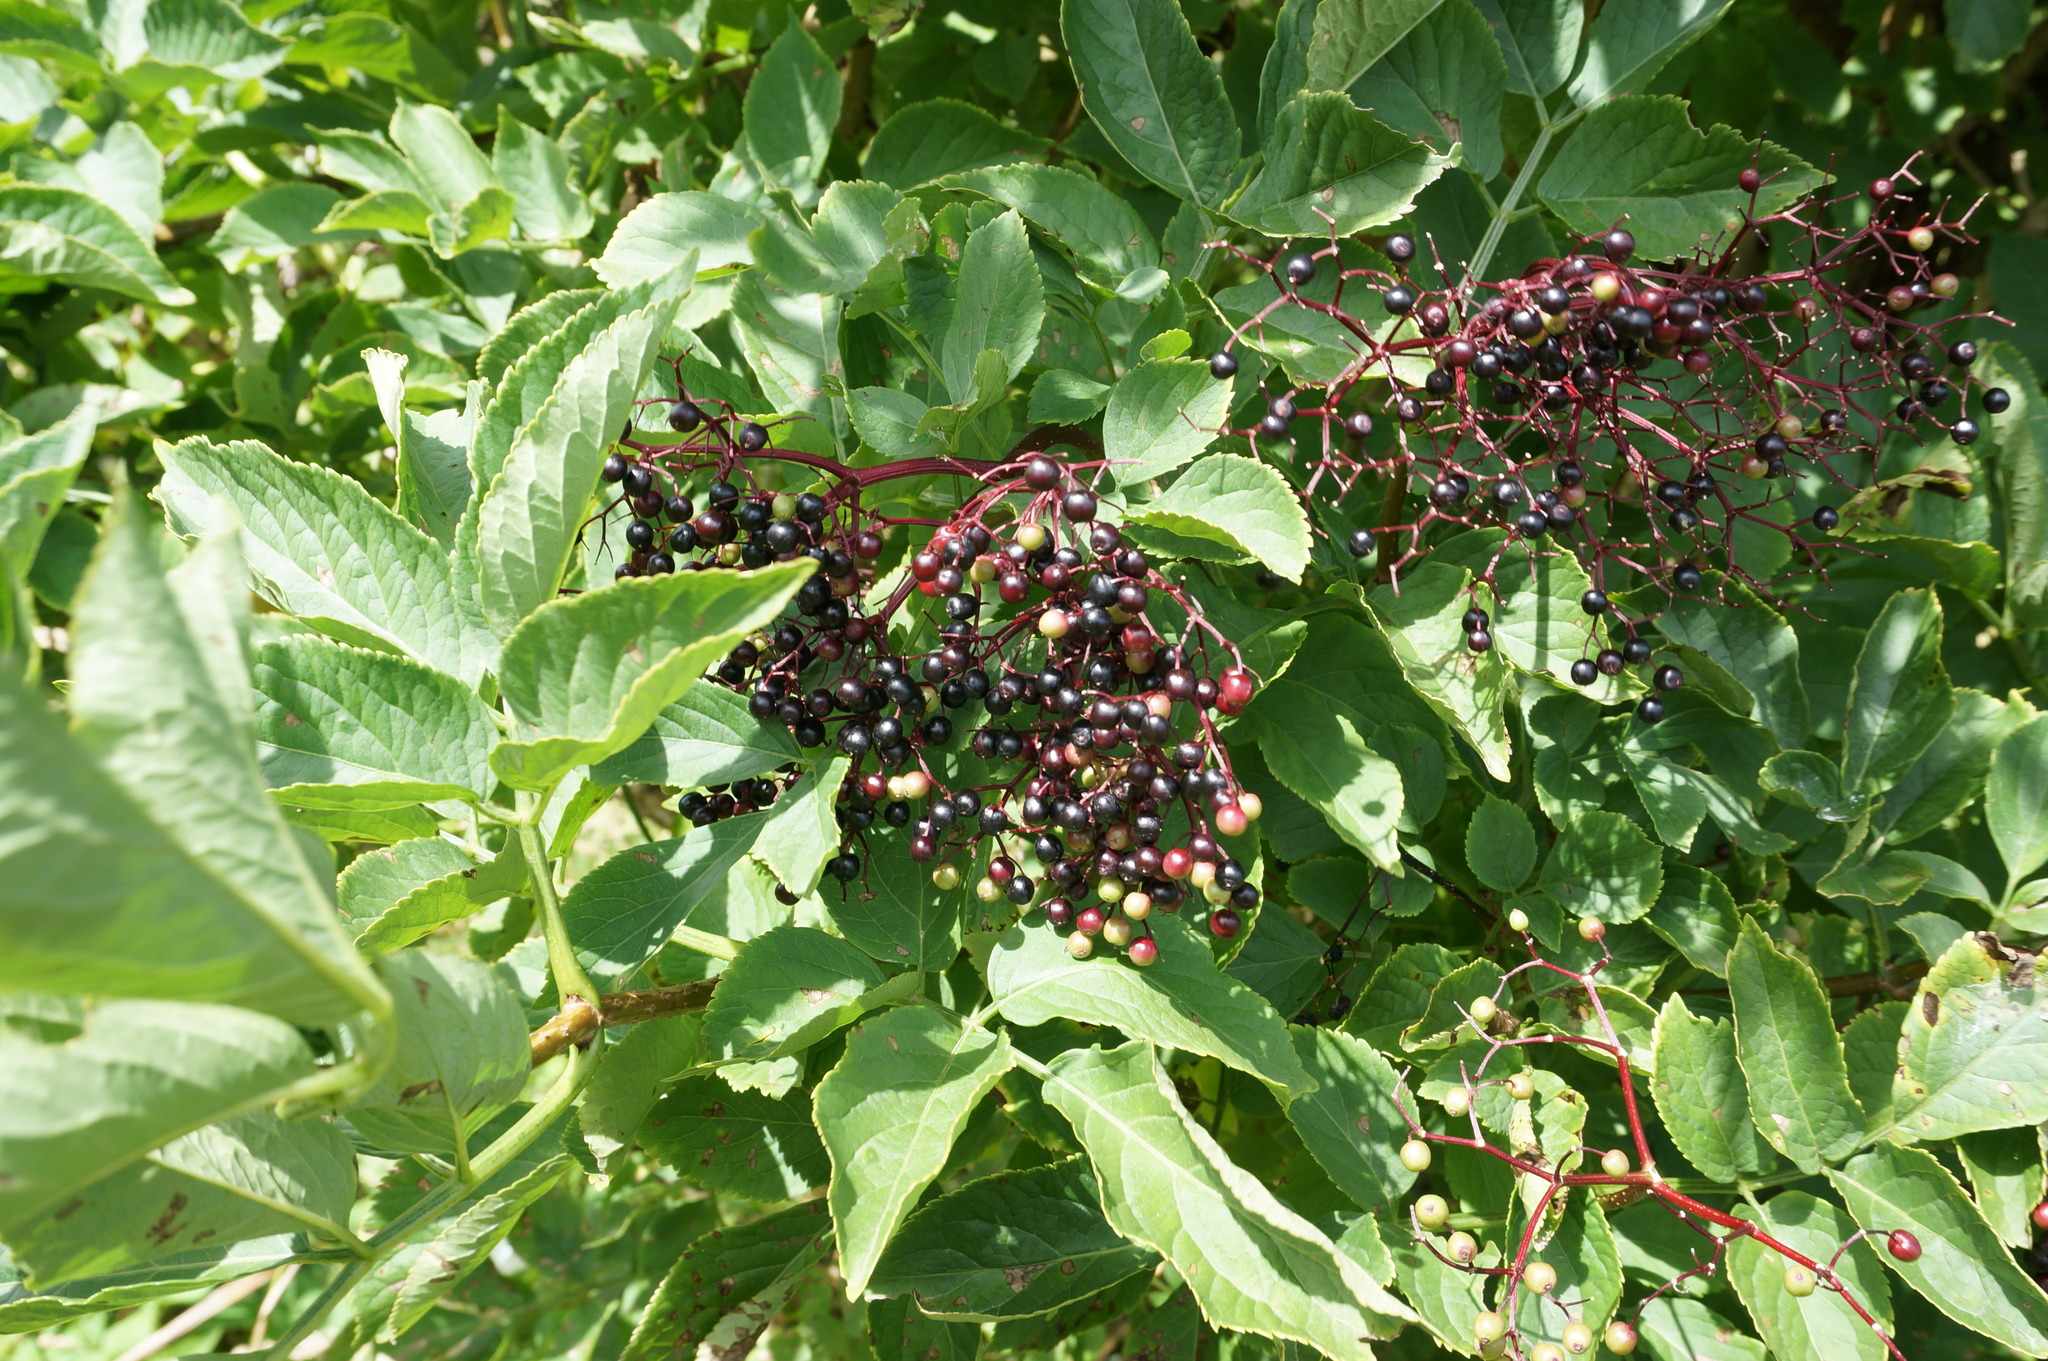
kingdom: Plantae
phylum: Tracheophyta
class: Magnoliopsida
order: Dipsacales
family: Viburnaceae
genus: Sambucus
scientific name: Sambucus nigra
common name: Elder
